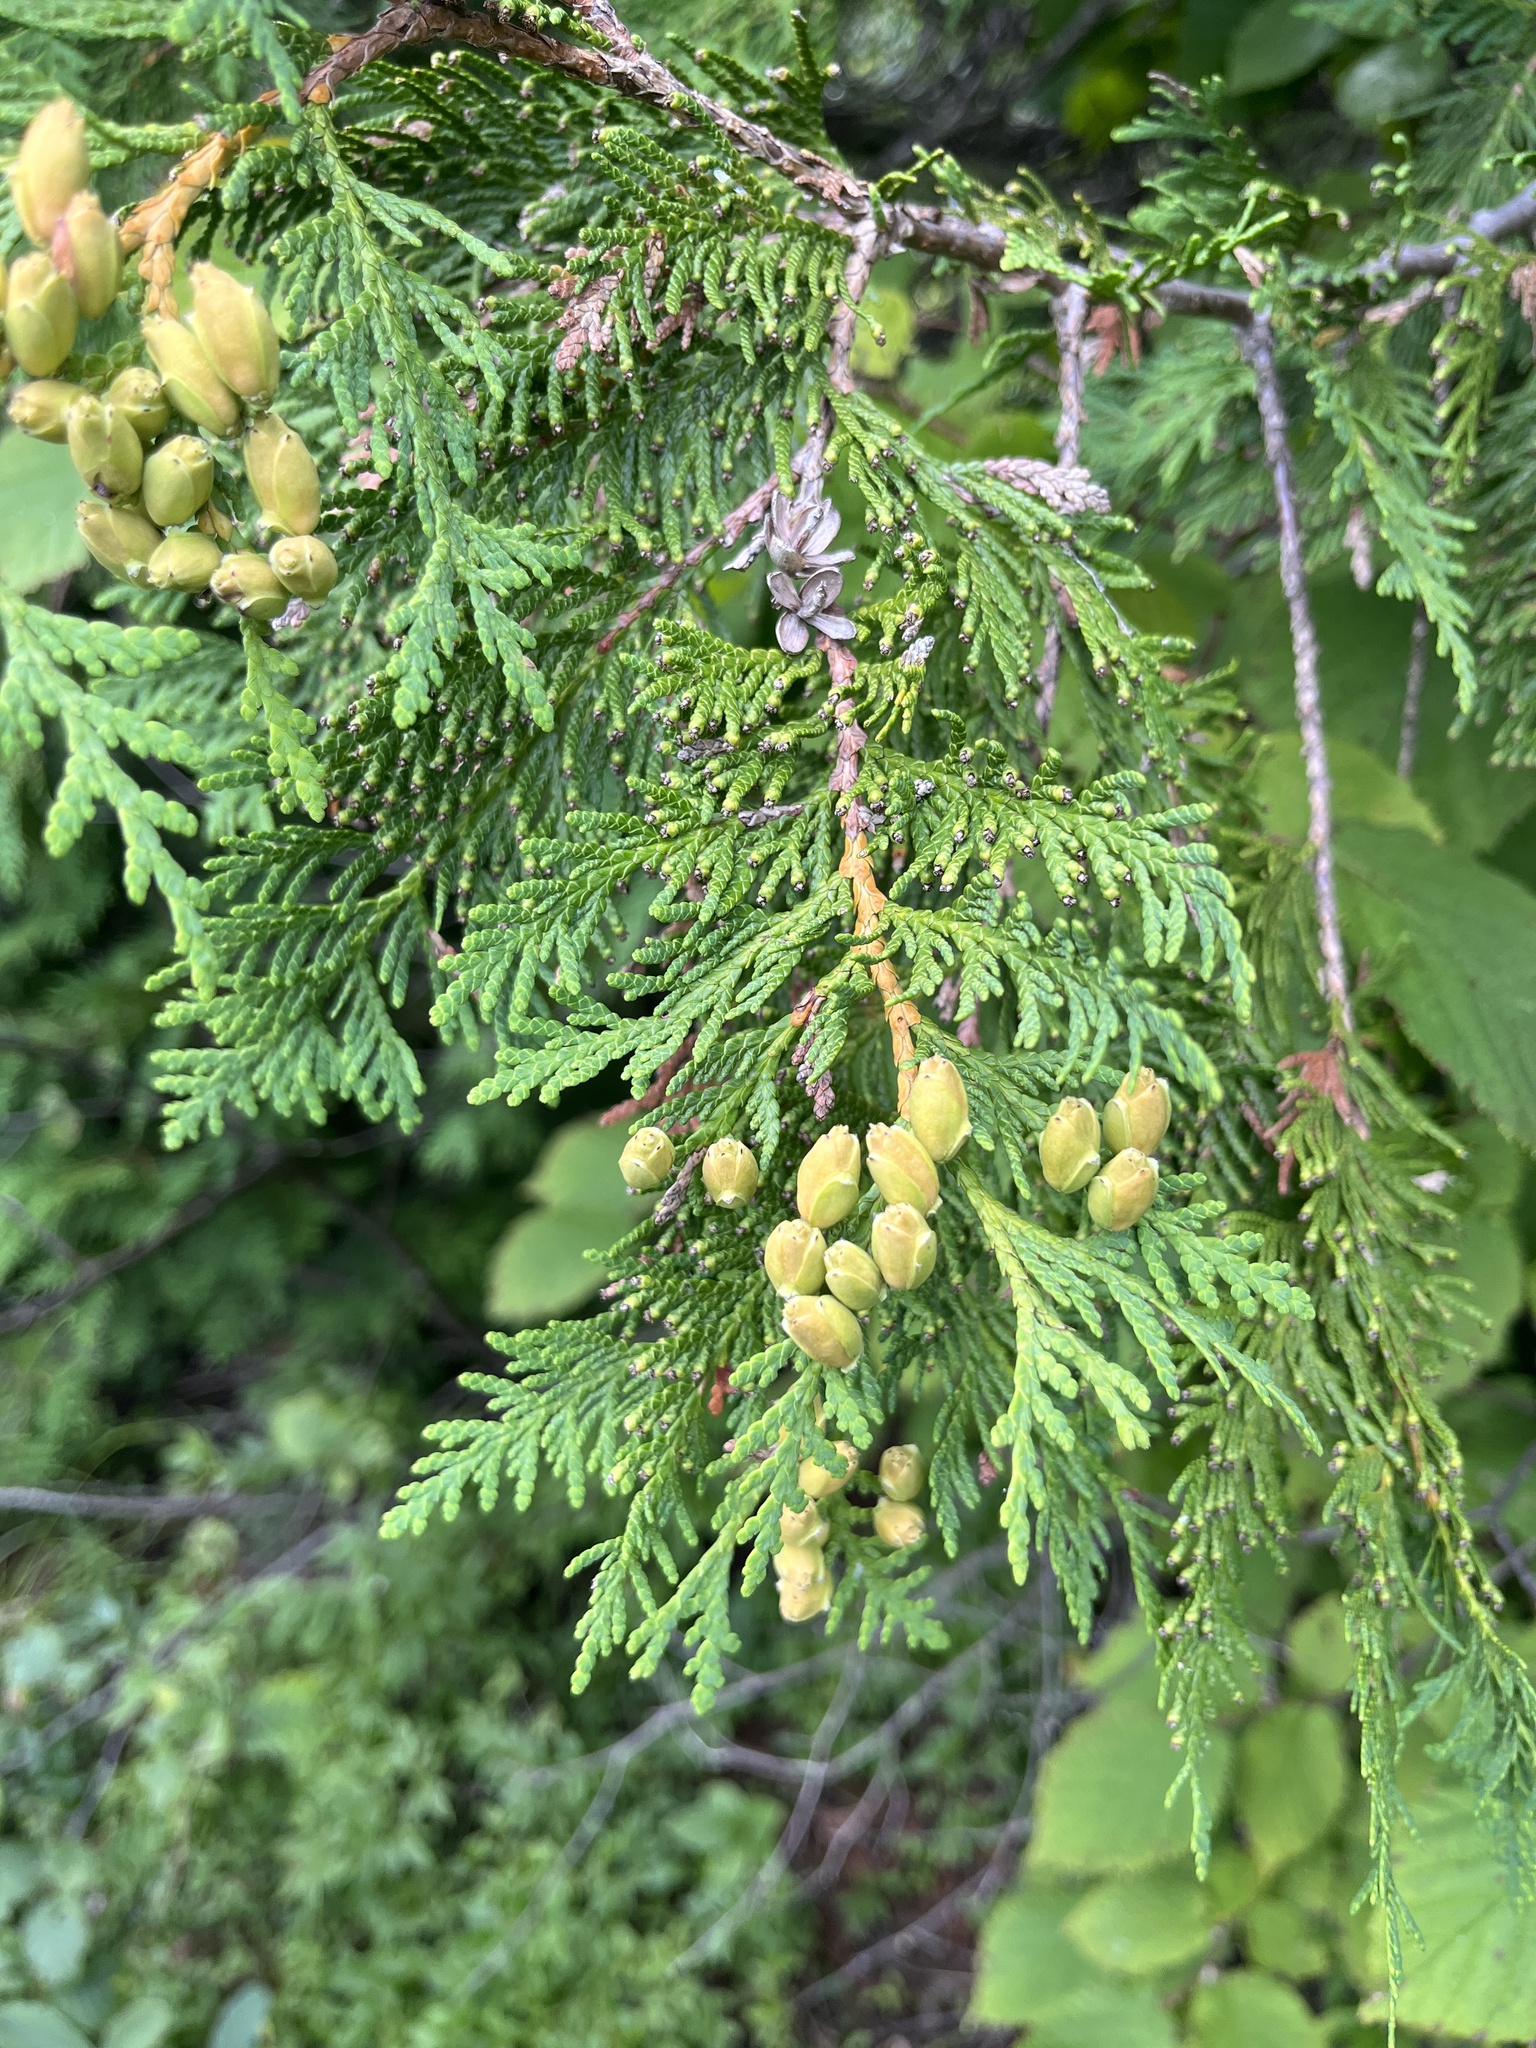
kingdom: Plantae
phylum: Tracheophyta
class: Pinopsida
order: Pinales
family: Cupressaceae
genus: Thuja
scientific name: Thuja occidentalis
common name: Northern white-cedar
